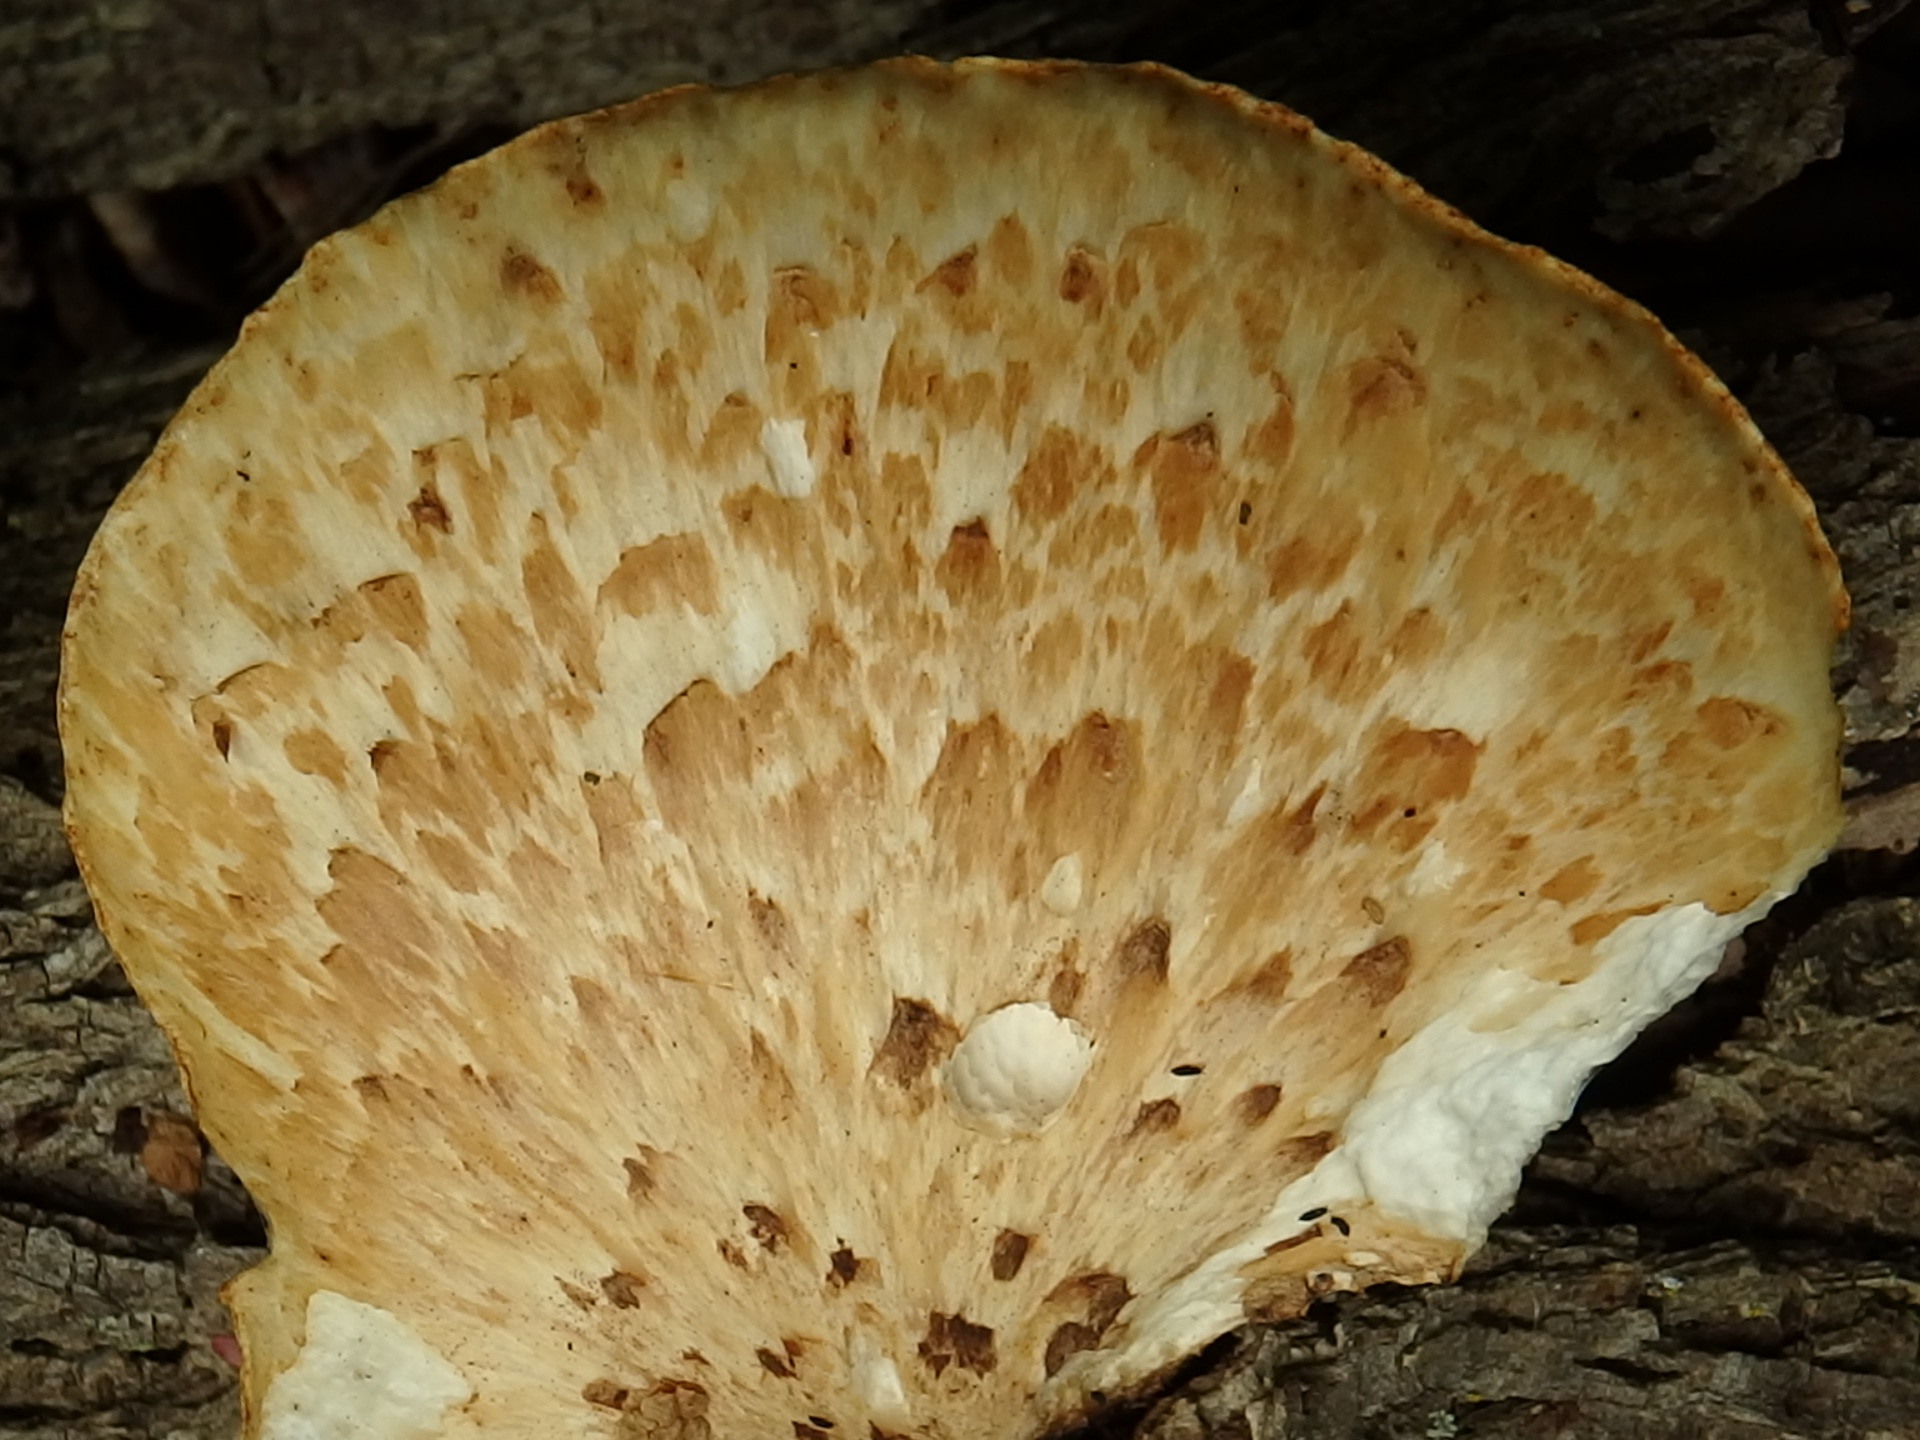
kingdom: Fungi
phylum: Basidiomycota
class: Agaricomycetes
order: Polyporales
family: Polyporaceae
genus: Cerioporus
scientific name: Cerioporus squamosus
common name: Dryad's saddle
